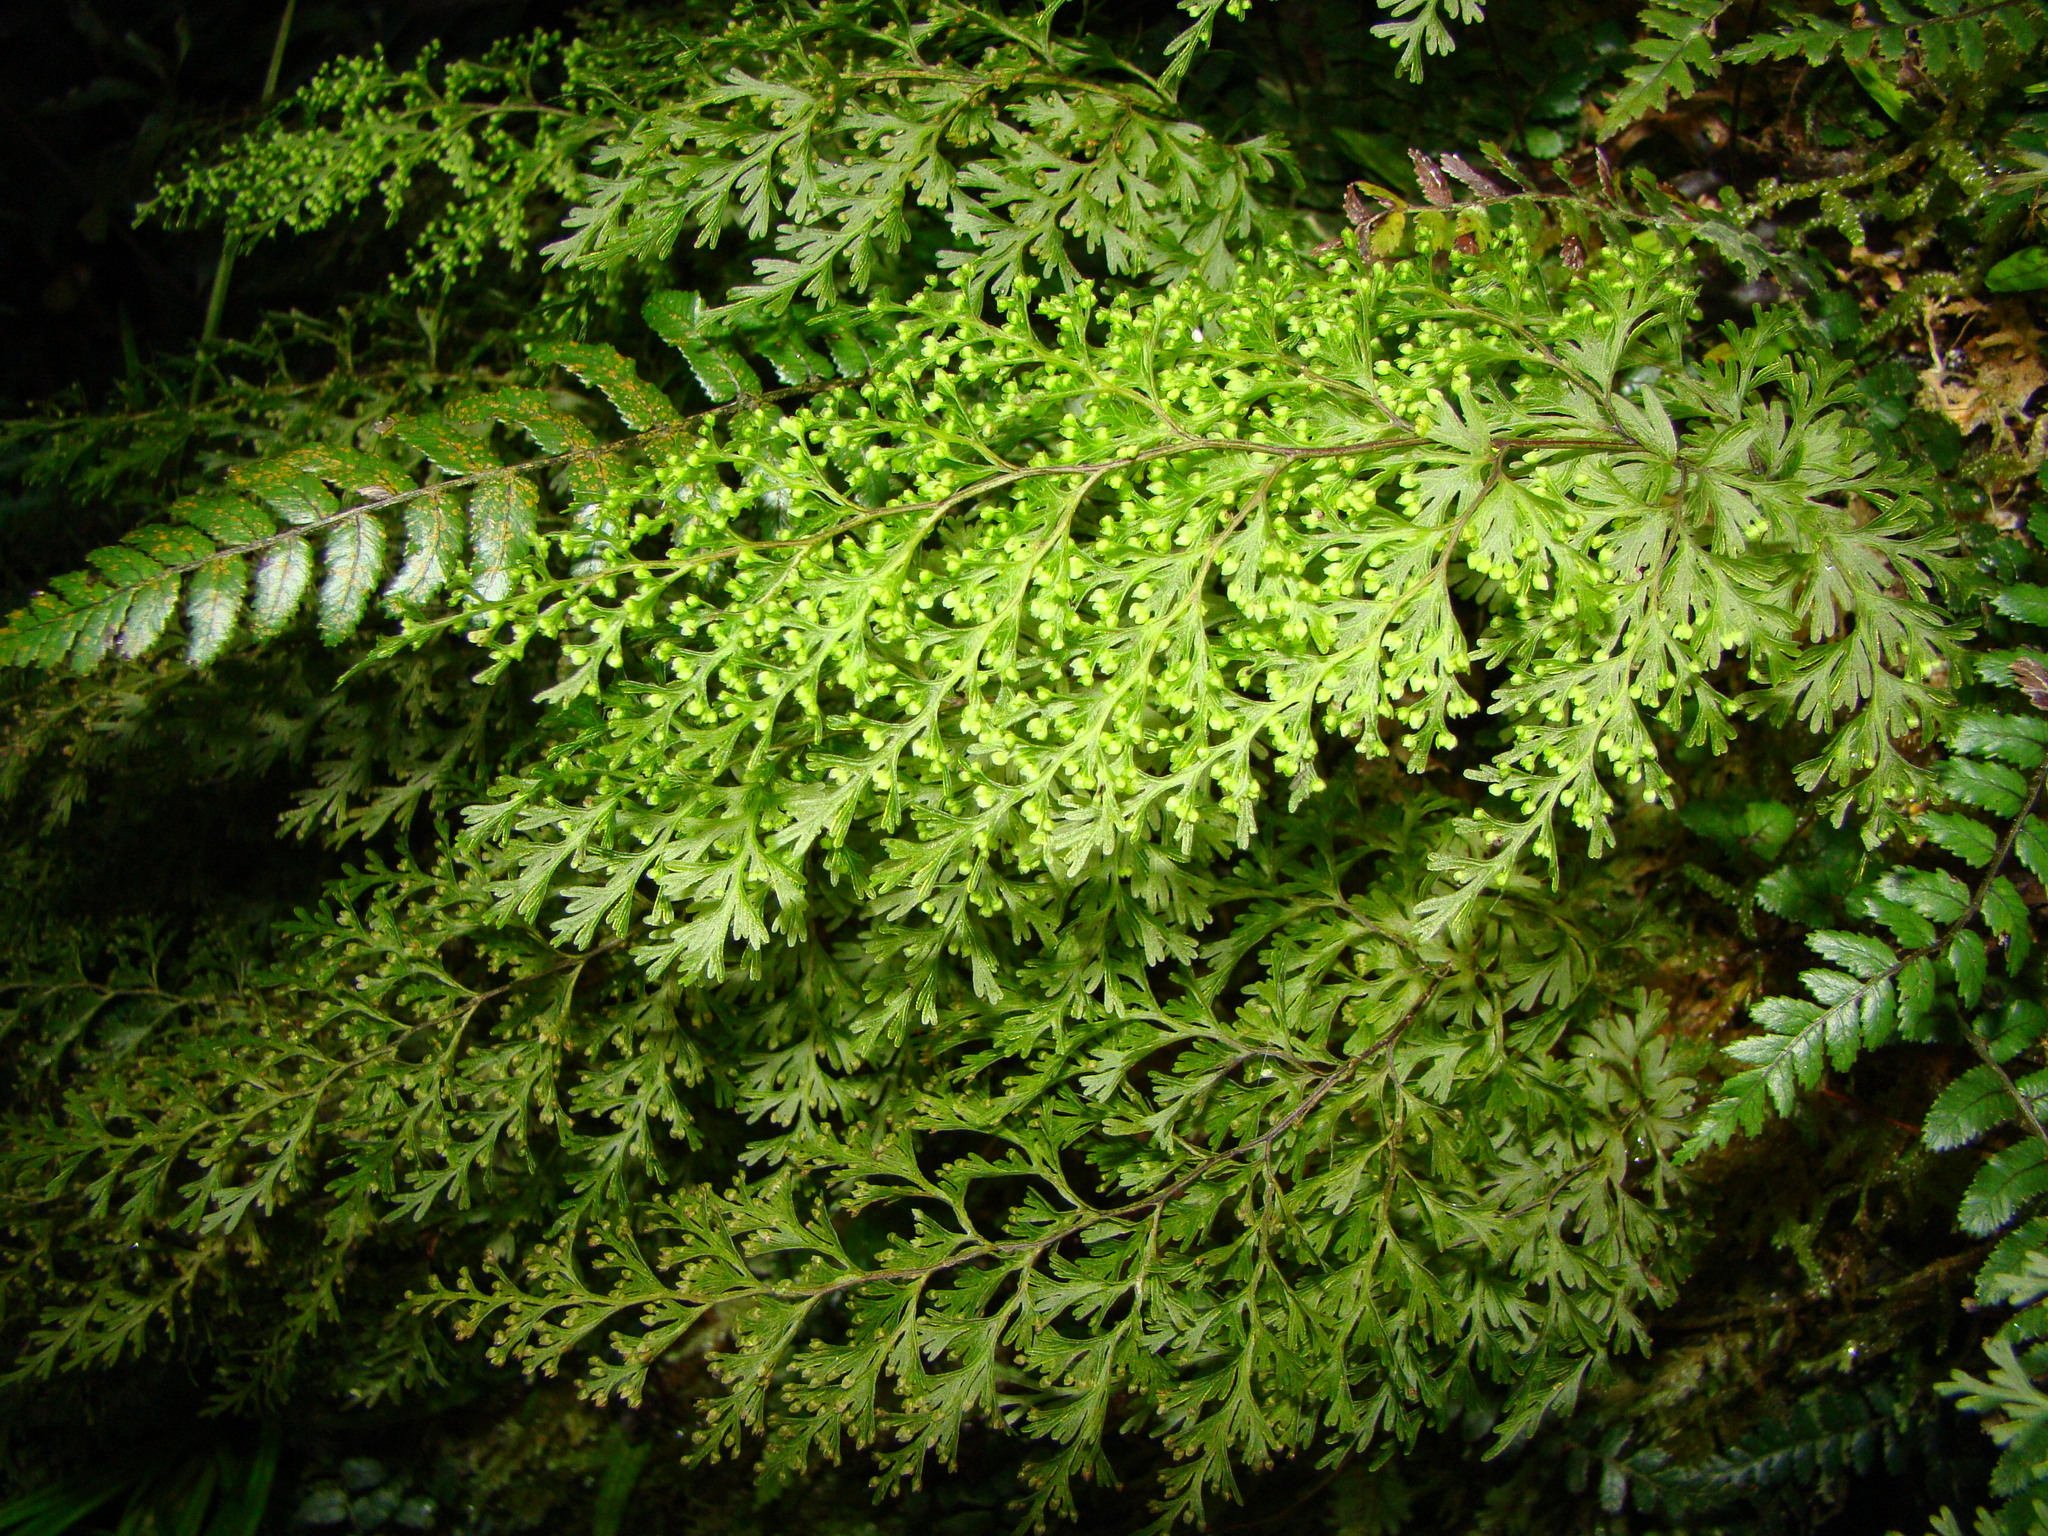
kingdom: Plantae
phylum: Tracheophyta
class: Polypodiopsida
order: Hymenophyllales
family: Hymenophyllaceae
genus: Hymenophyllum
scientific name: Hymenophyllum demissum
